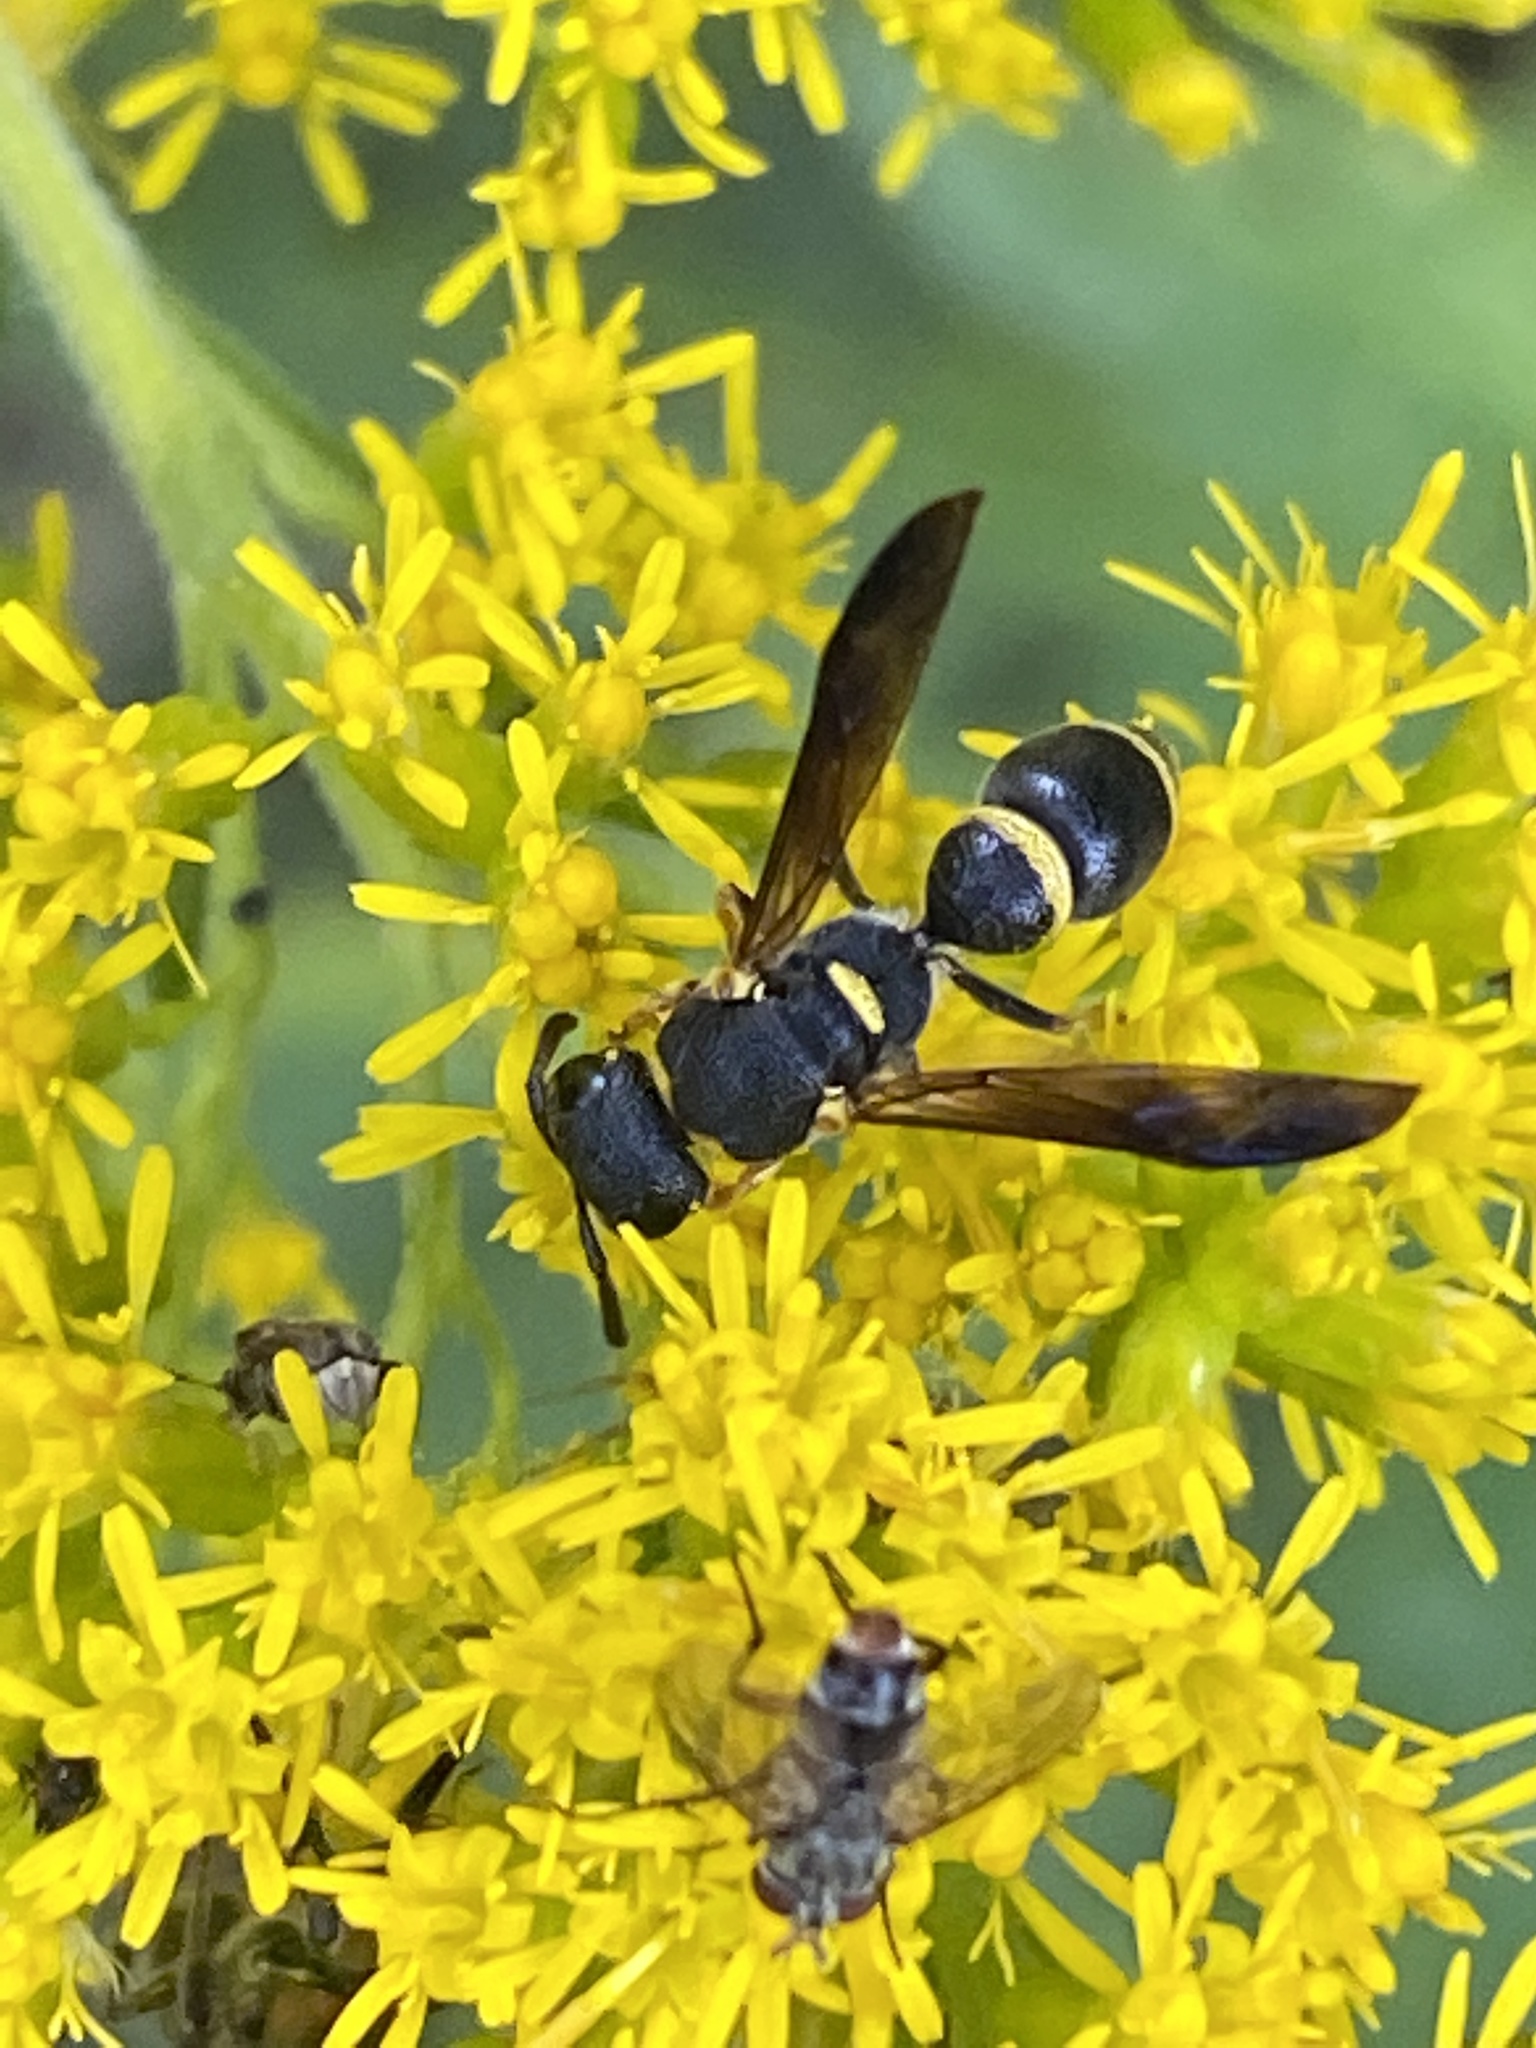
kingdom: Animalia
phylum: Arthropoda
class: Insecta
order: Hymenoptera
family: Eumenidae
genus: Parancistrocerus
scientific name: Parancistrocerus perennis
